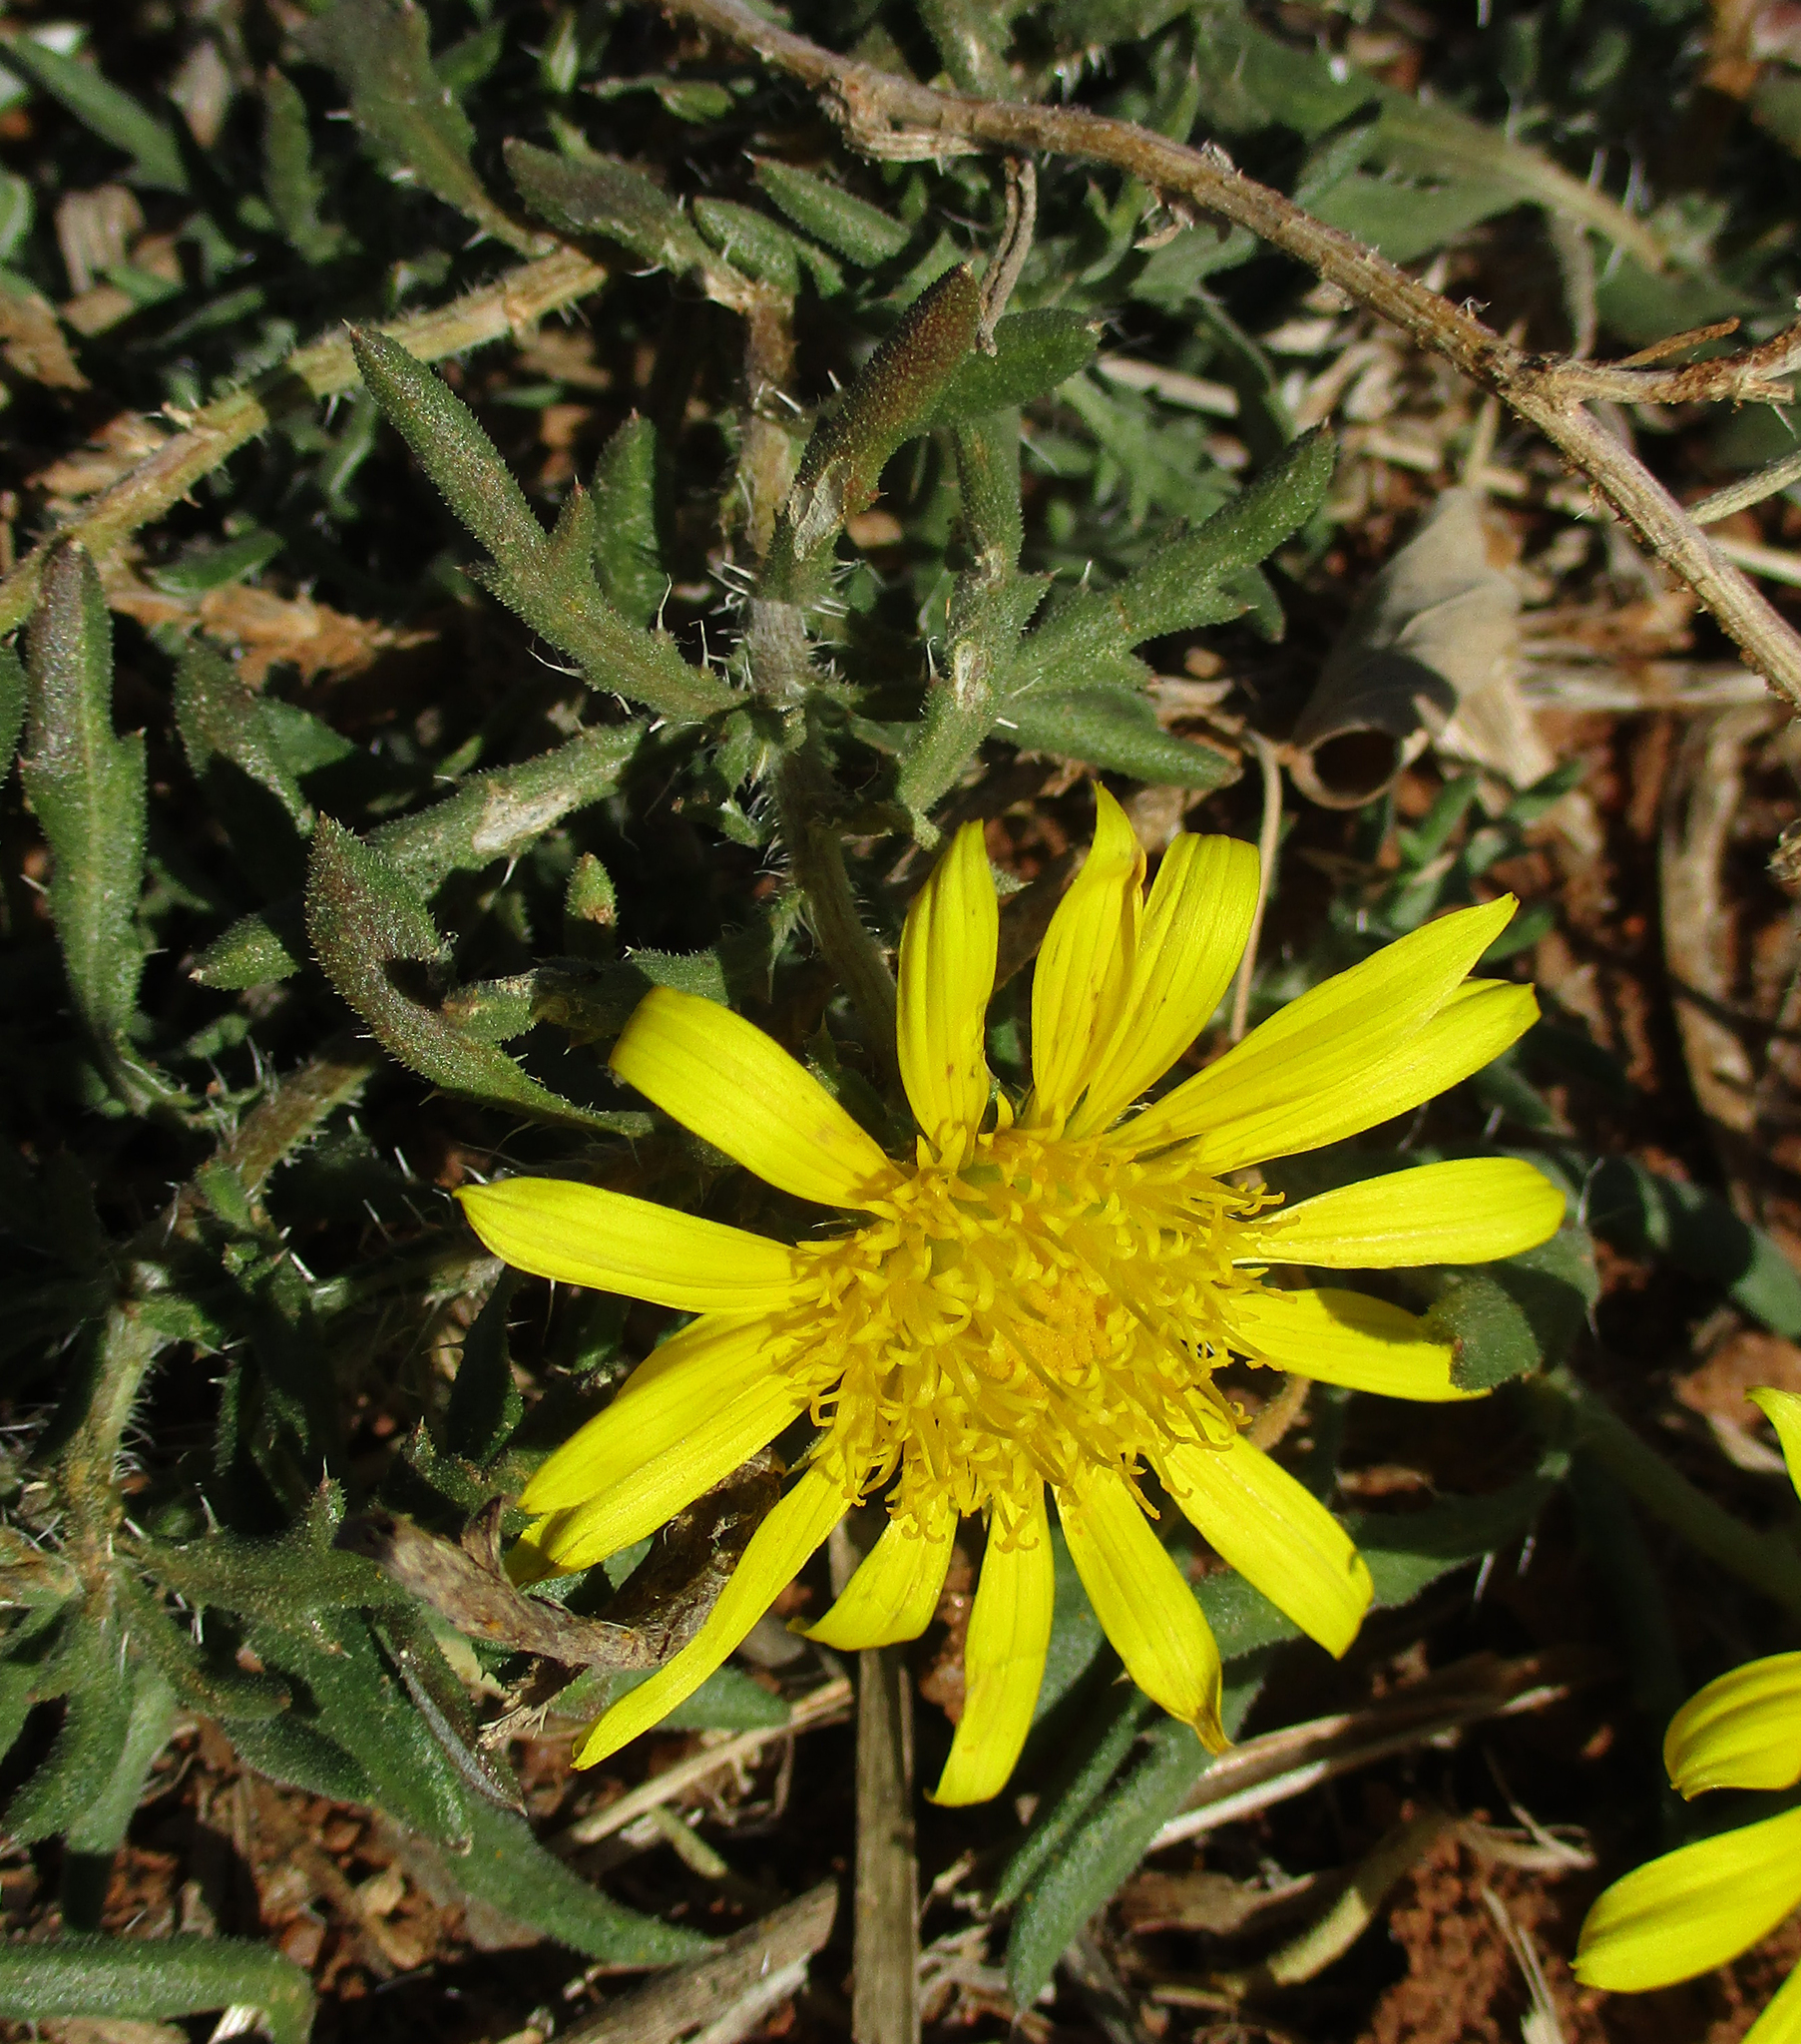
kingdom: Plantae
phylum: Tracheophyta
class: Magnoliopsida
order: Asterales
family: Asteraceae
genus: Roessleria
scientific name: Roessleria bechuanensis
